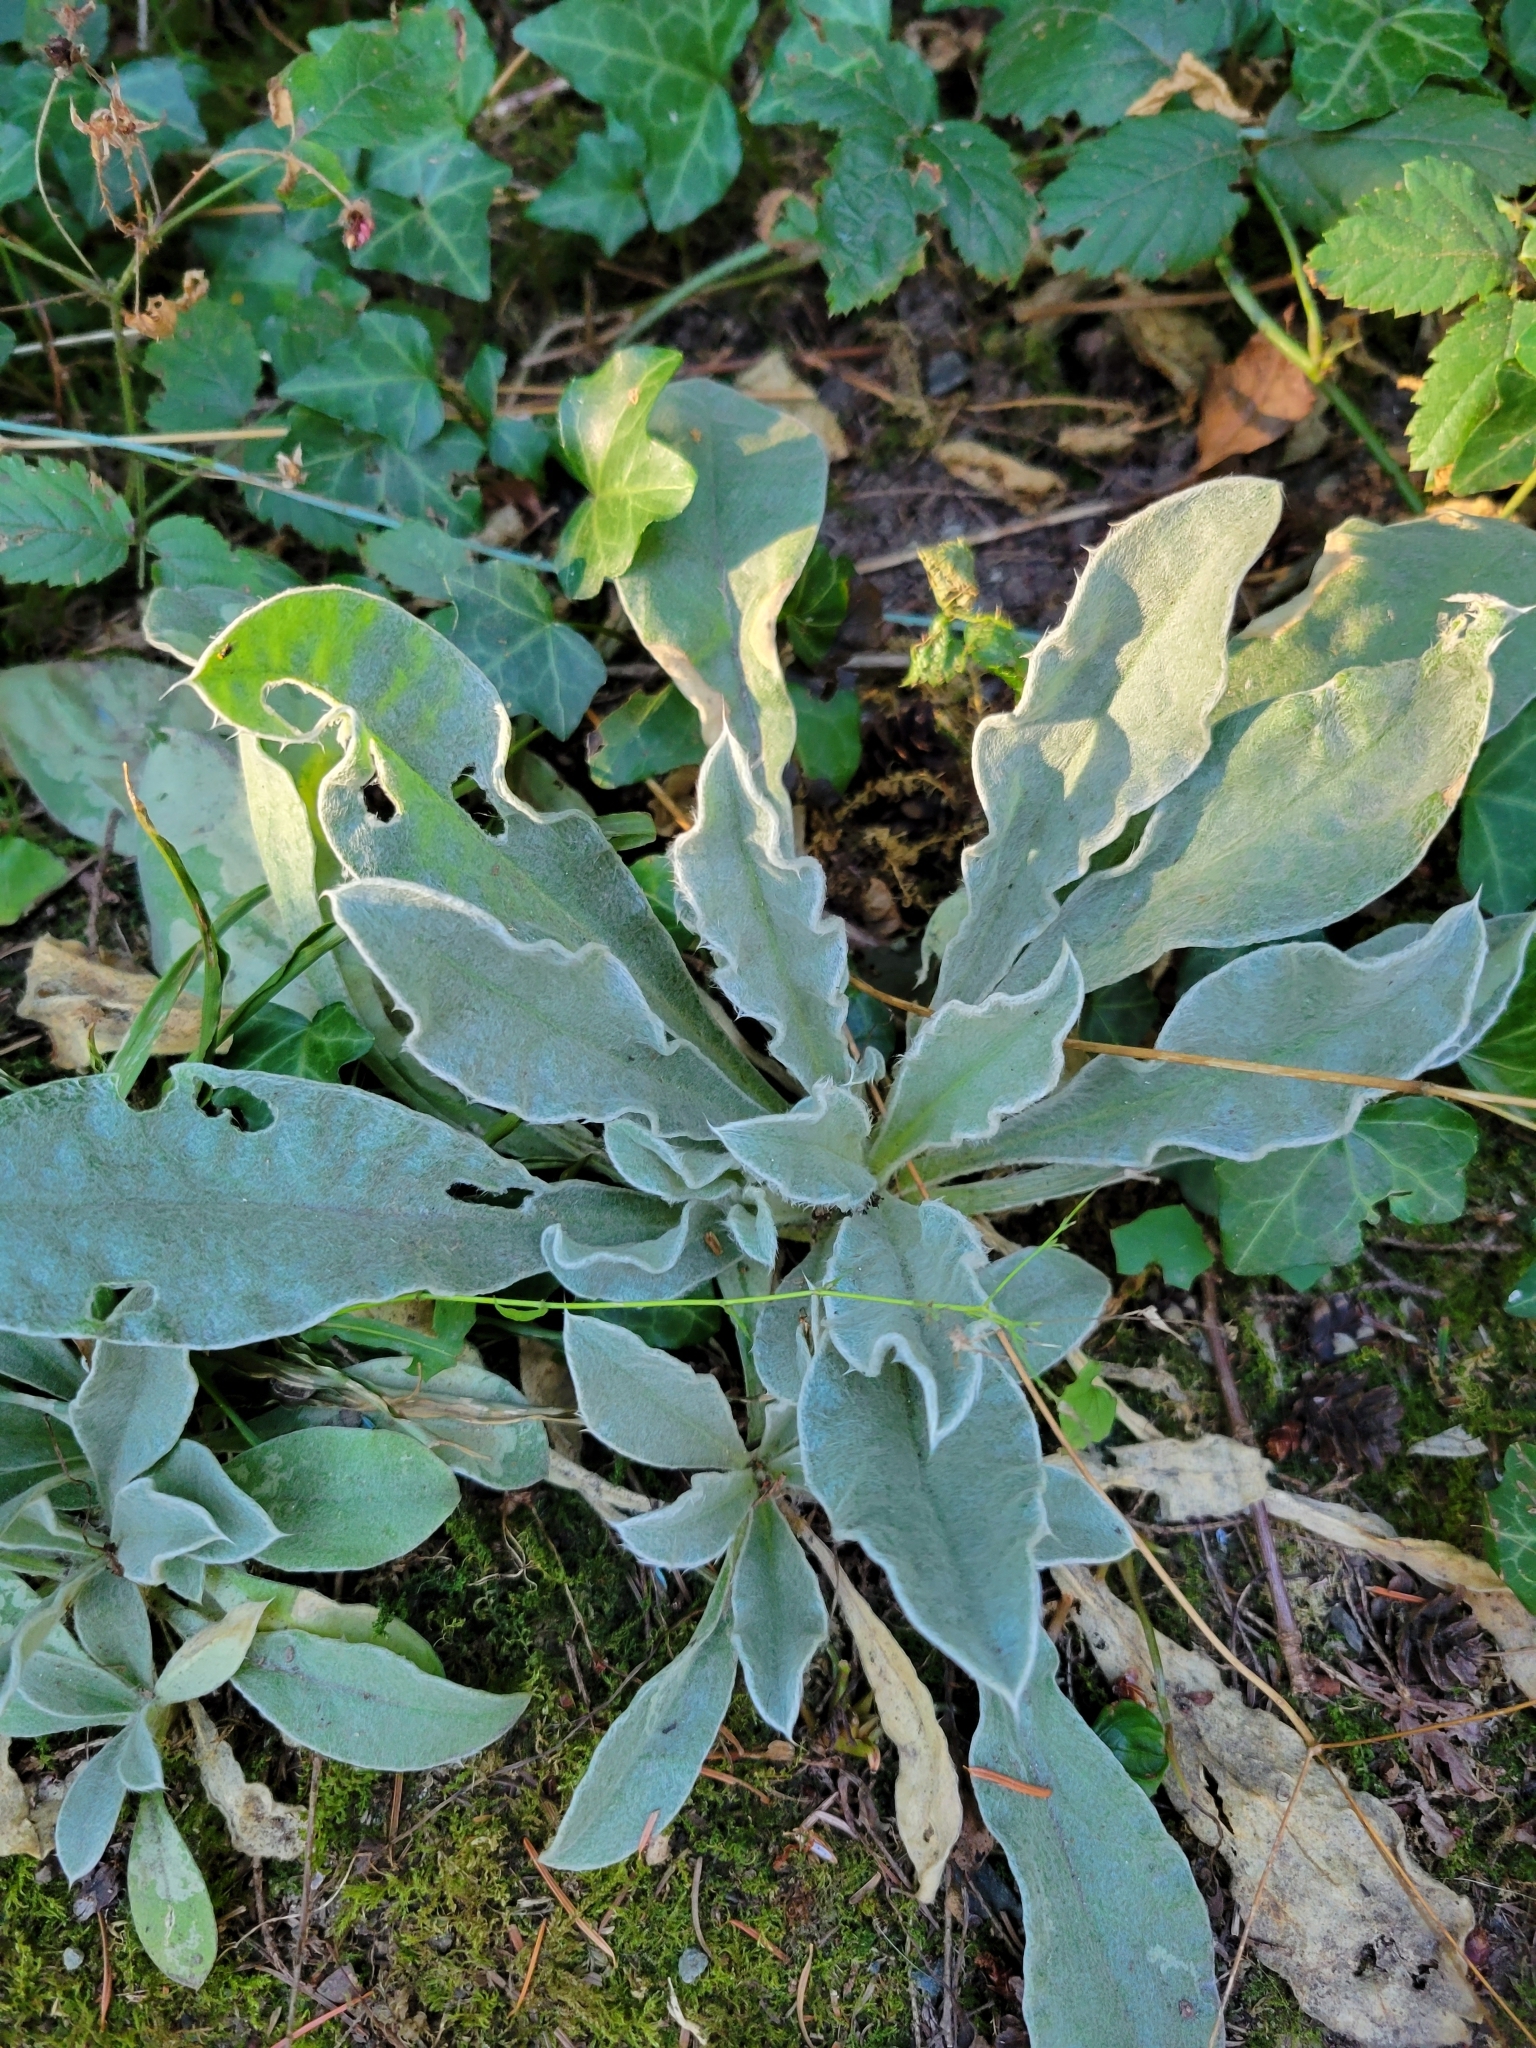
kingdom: Plantae
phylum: Tracheophyta
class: Magnoliopsida
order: Caryophyllales
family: Caryophyllaceae
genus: Silene
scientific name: Silene coronaria
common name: Rose campion
